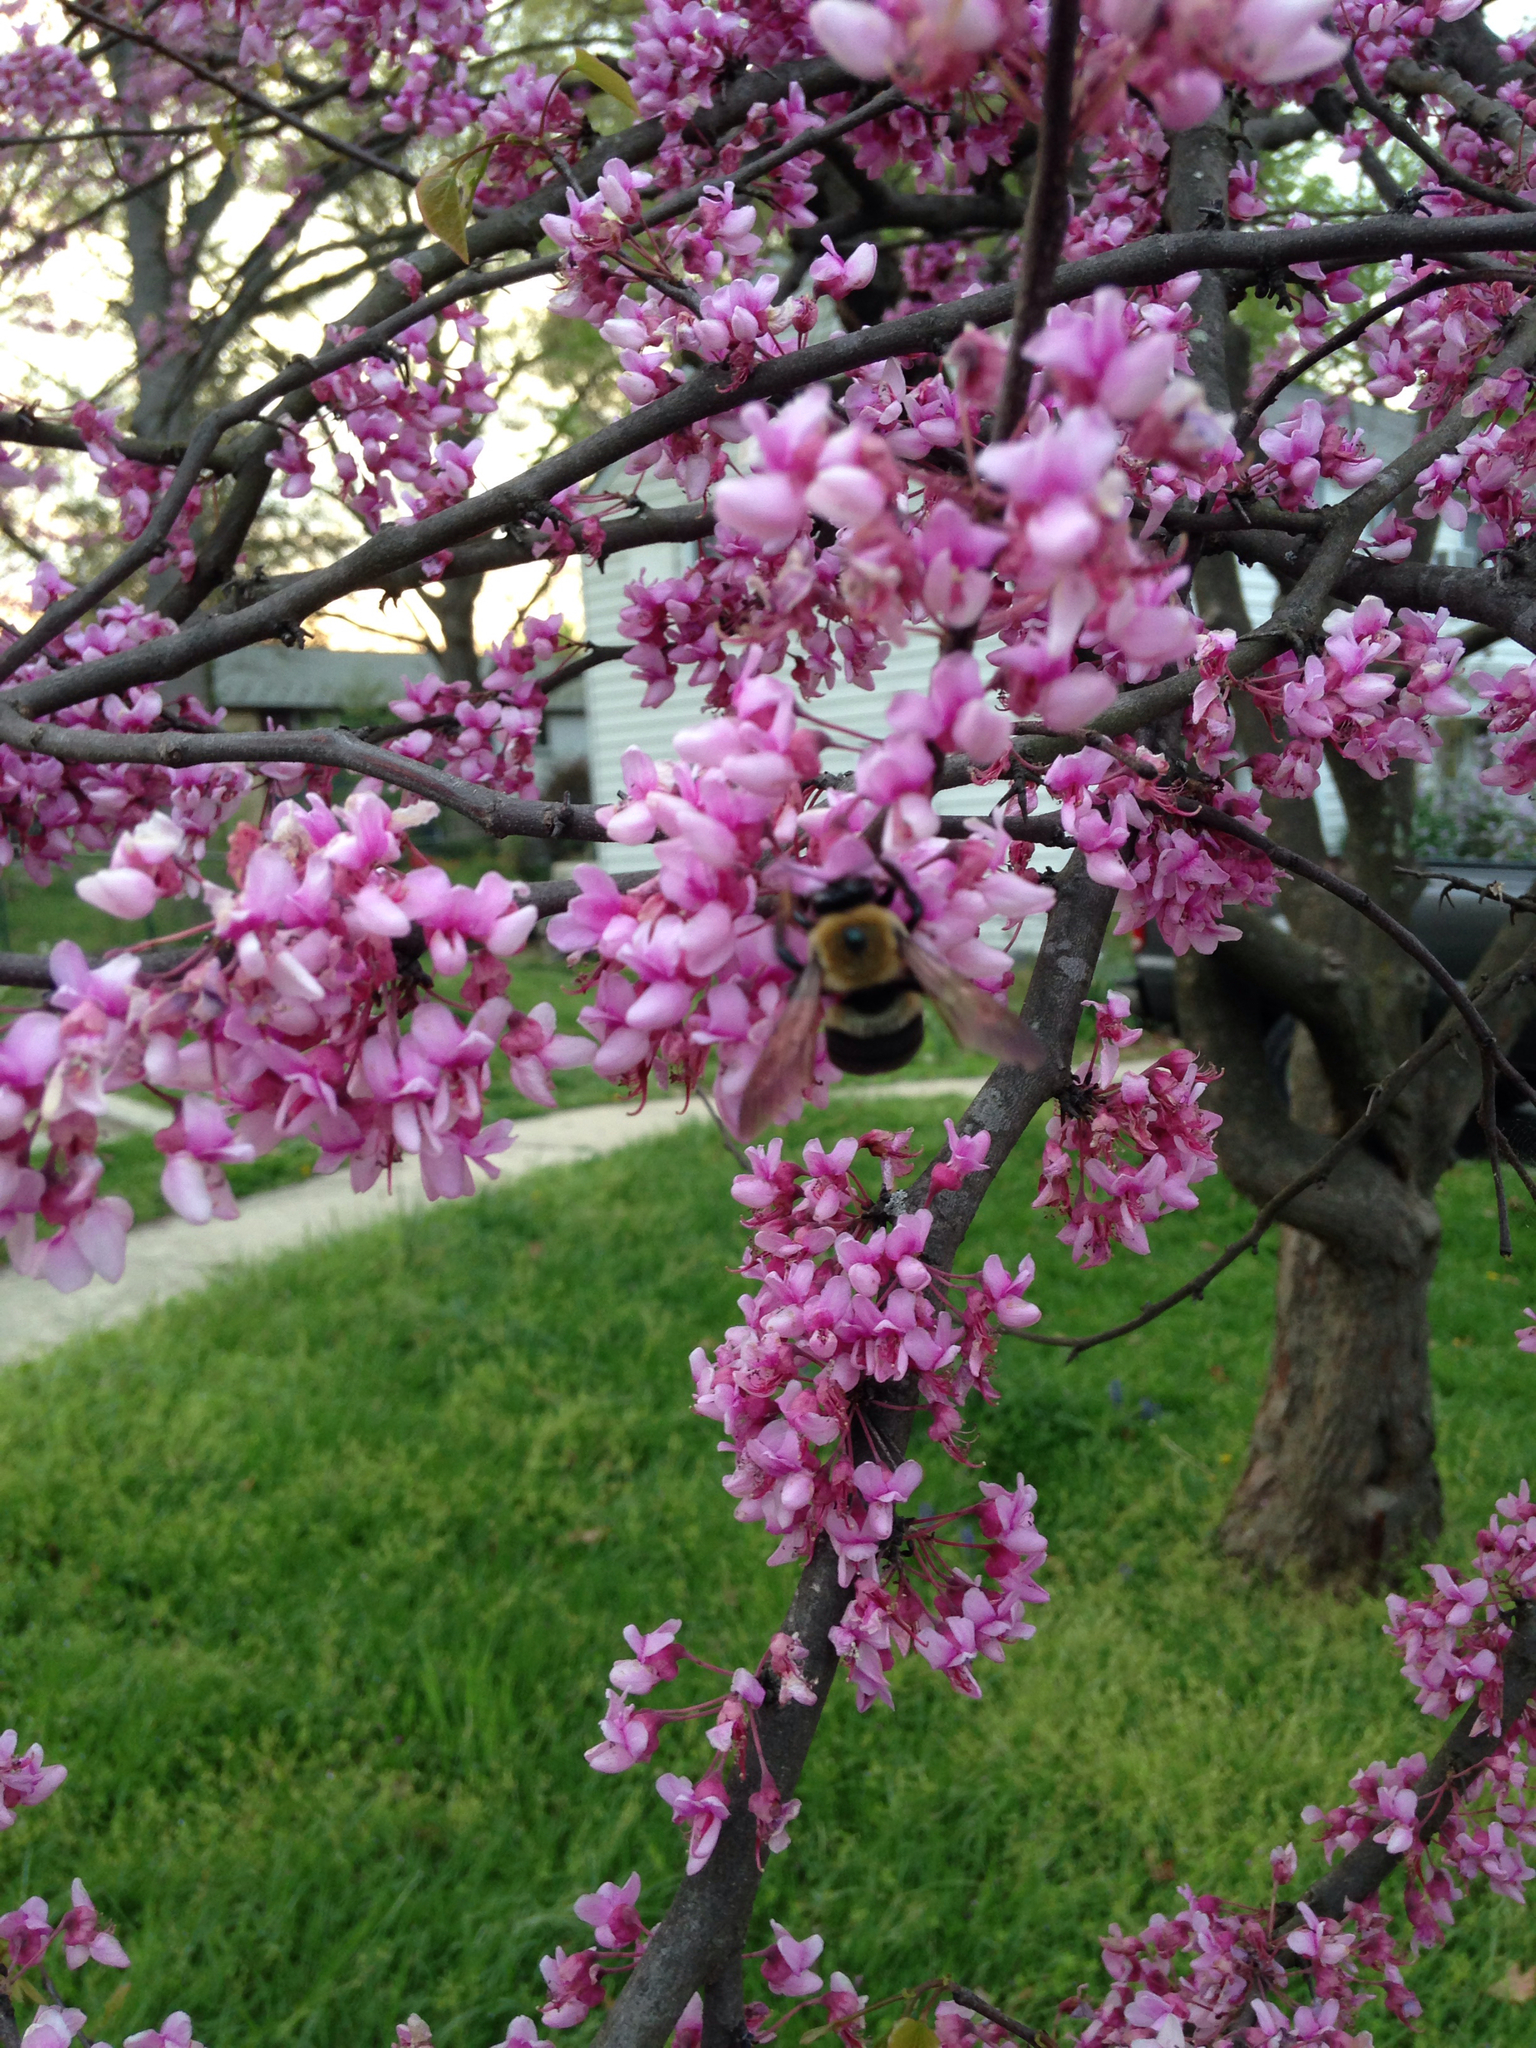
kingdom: Animalia
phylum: Arthropoda
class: Insecta
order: Hymenoptera
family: Apidae
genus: Xylocopa
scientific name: Xylocopa virginica
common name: Carpenter bee
